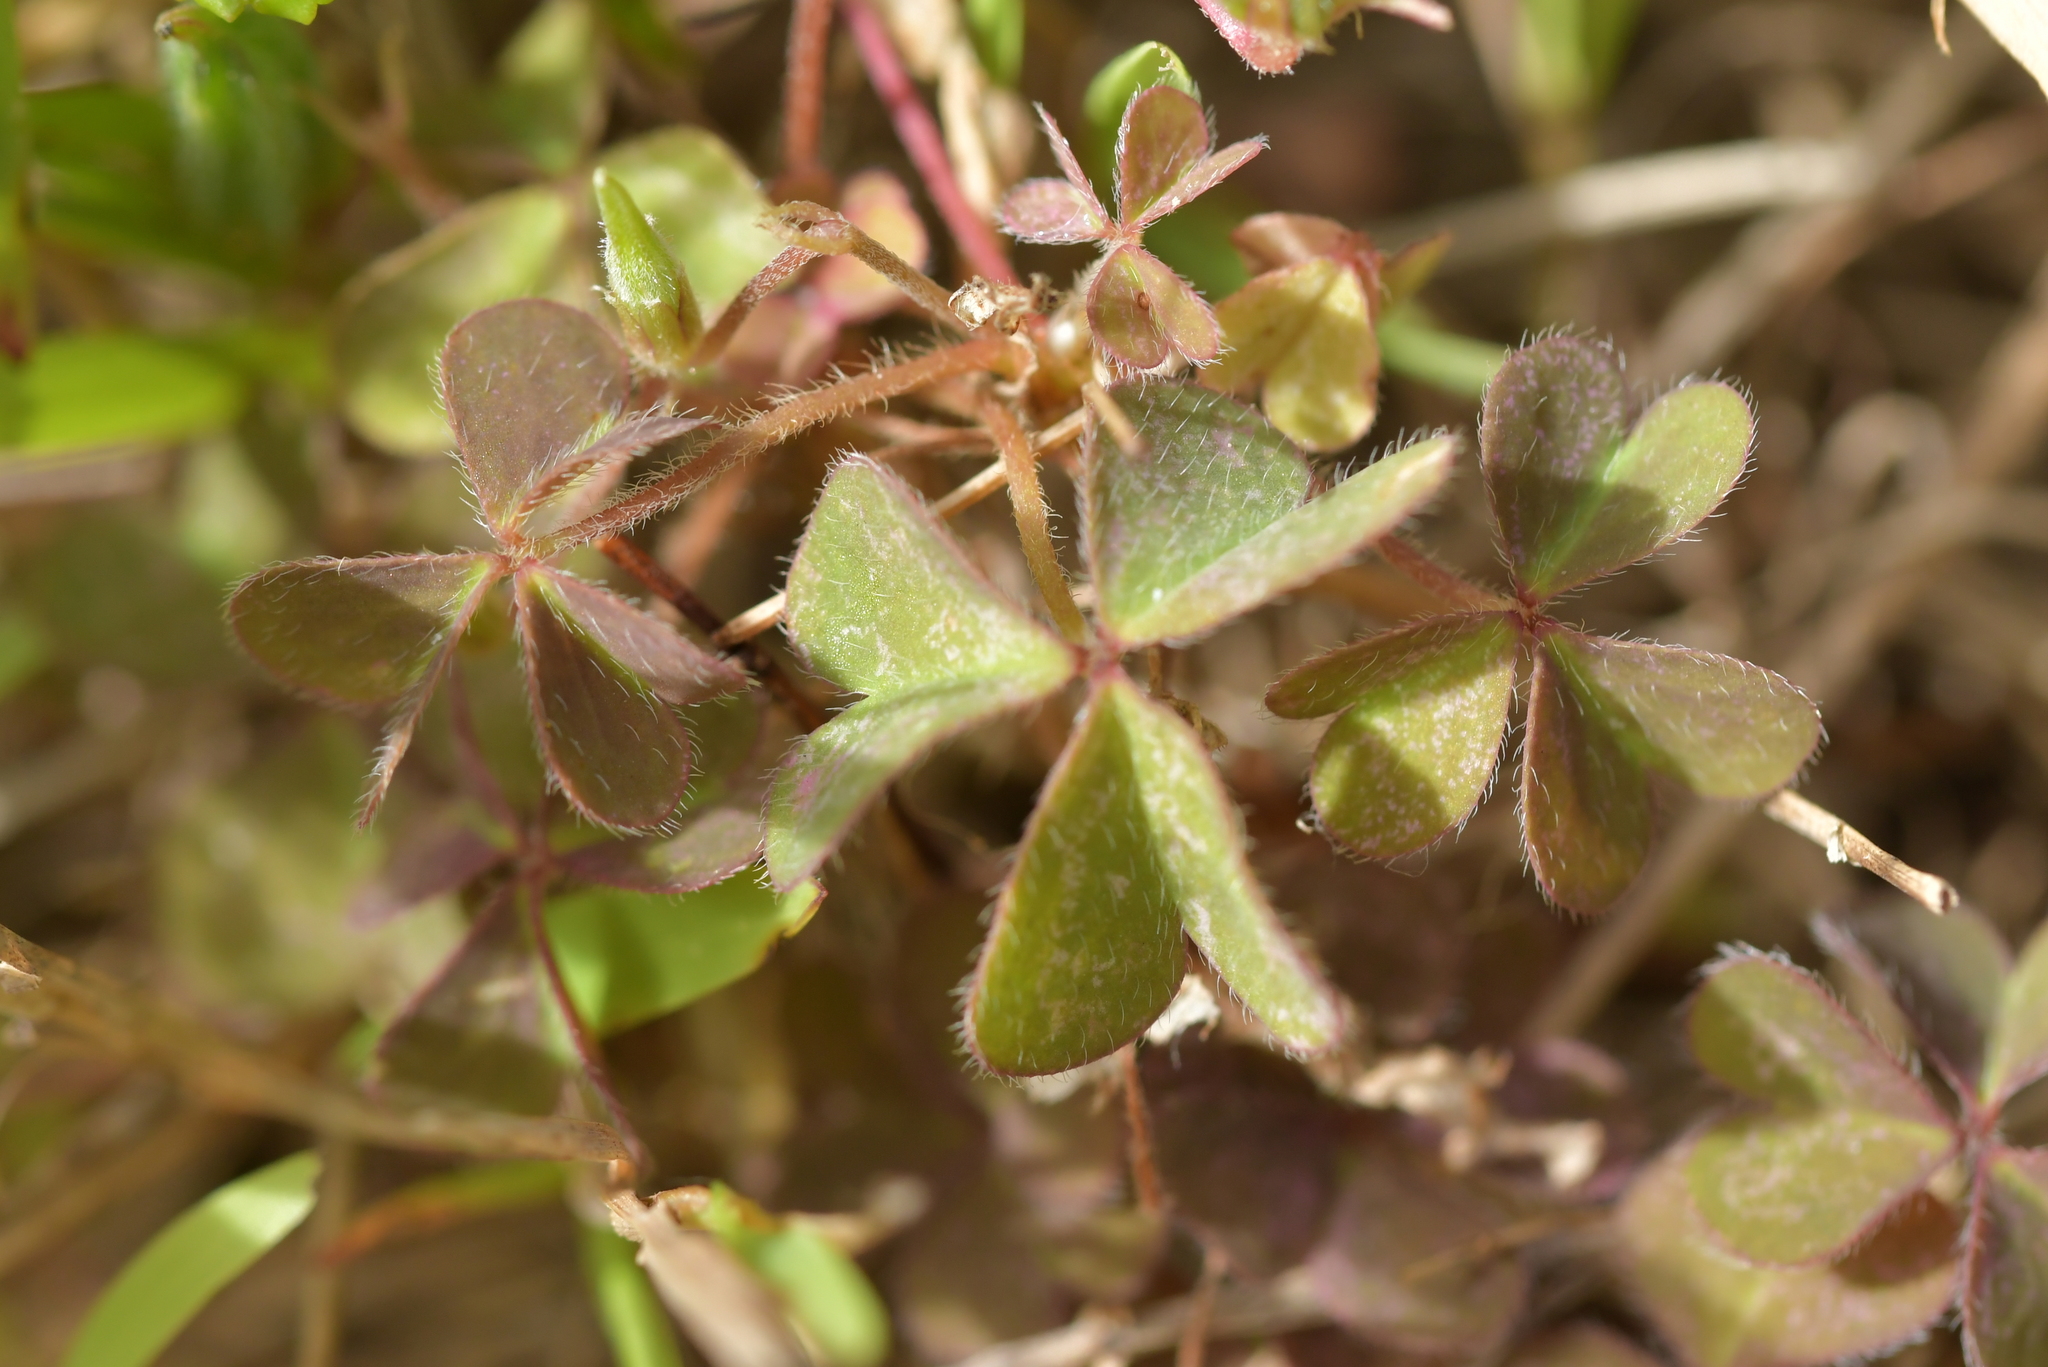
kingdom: Plantae
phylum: Tracheophyta
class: Magnoliopsida
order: Oxalidales
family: Oxalidaceae
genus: Oxalis
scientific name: Oxalis corniculata
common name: Procumbent yellow-sorrel
